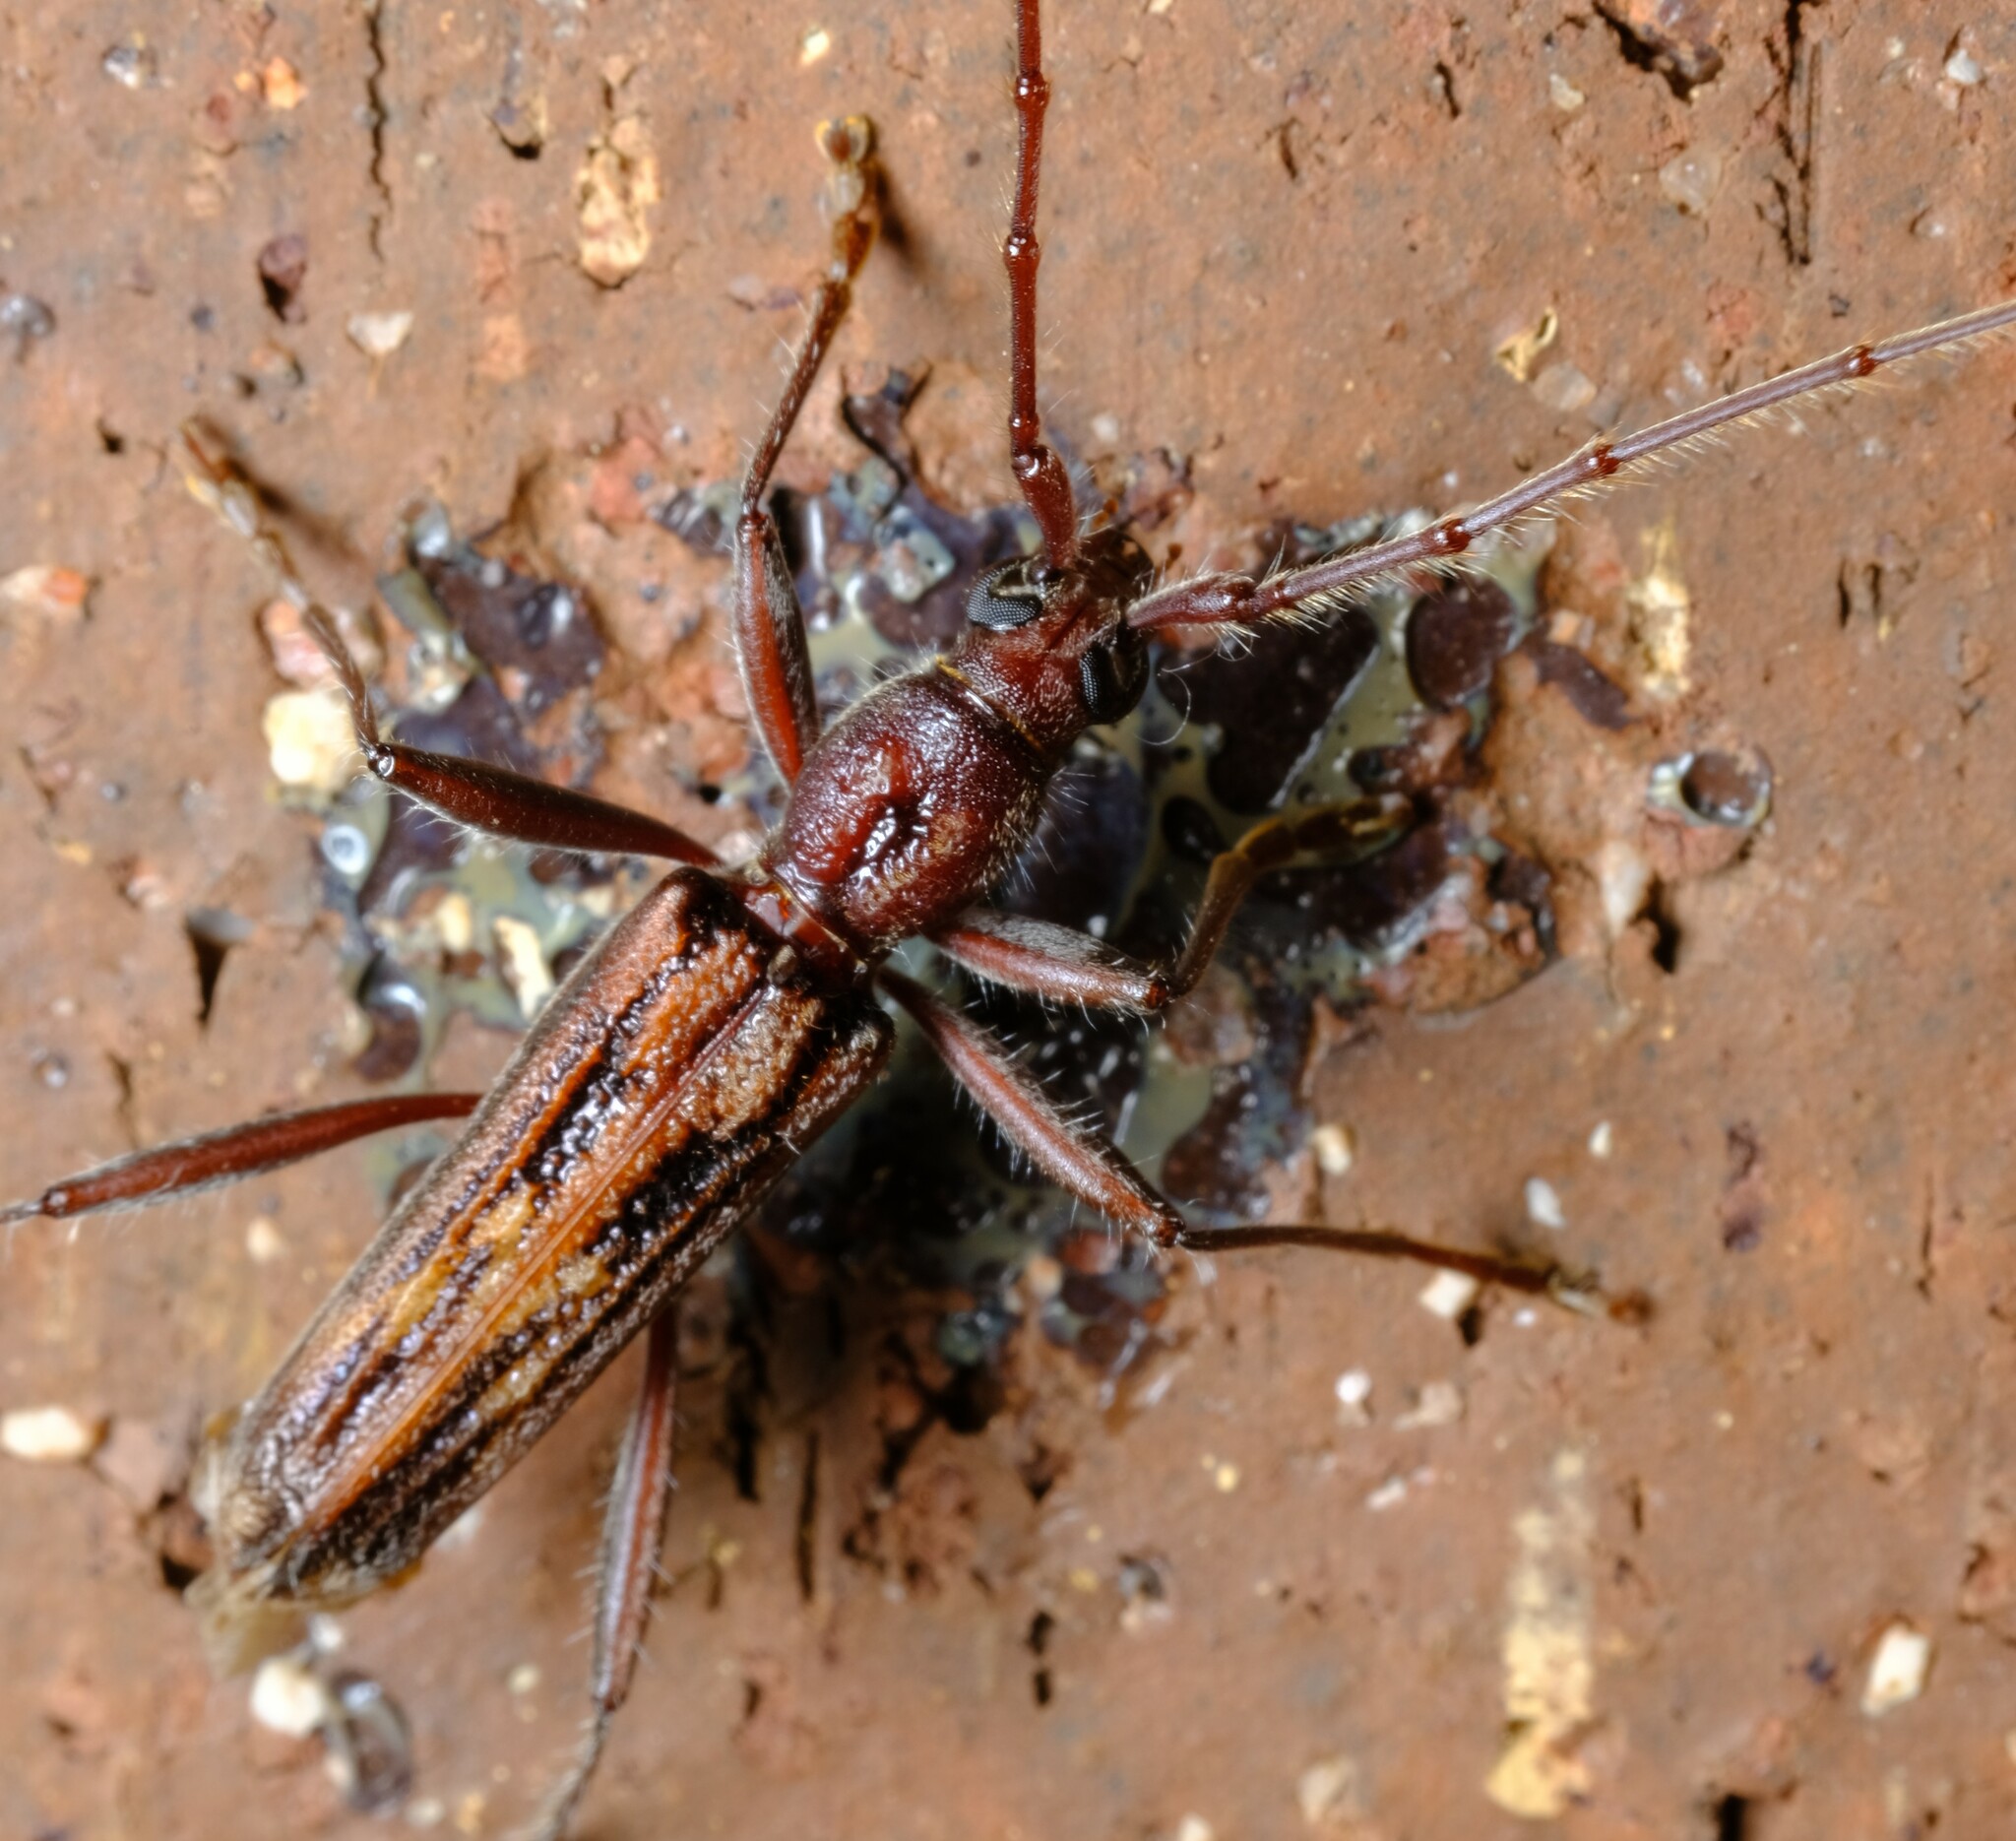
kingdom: Animalia
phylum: Arthropoda
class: Insecta
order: Coleoptera
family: Cerambycidae
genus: Aesiotyche
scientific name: Aesiotyche favosa
